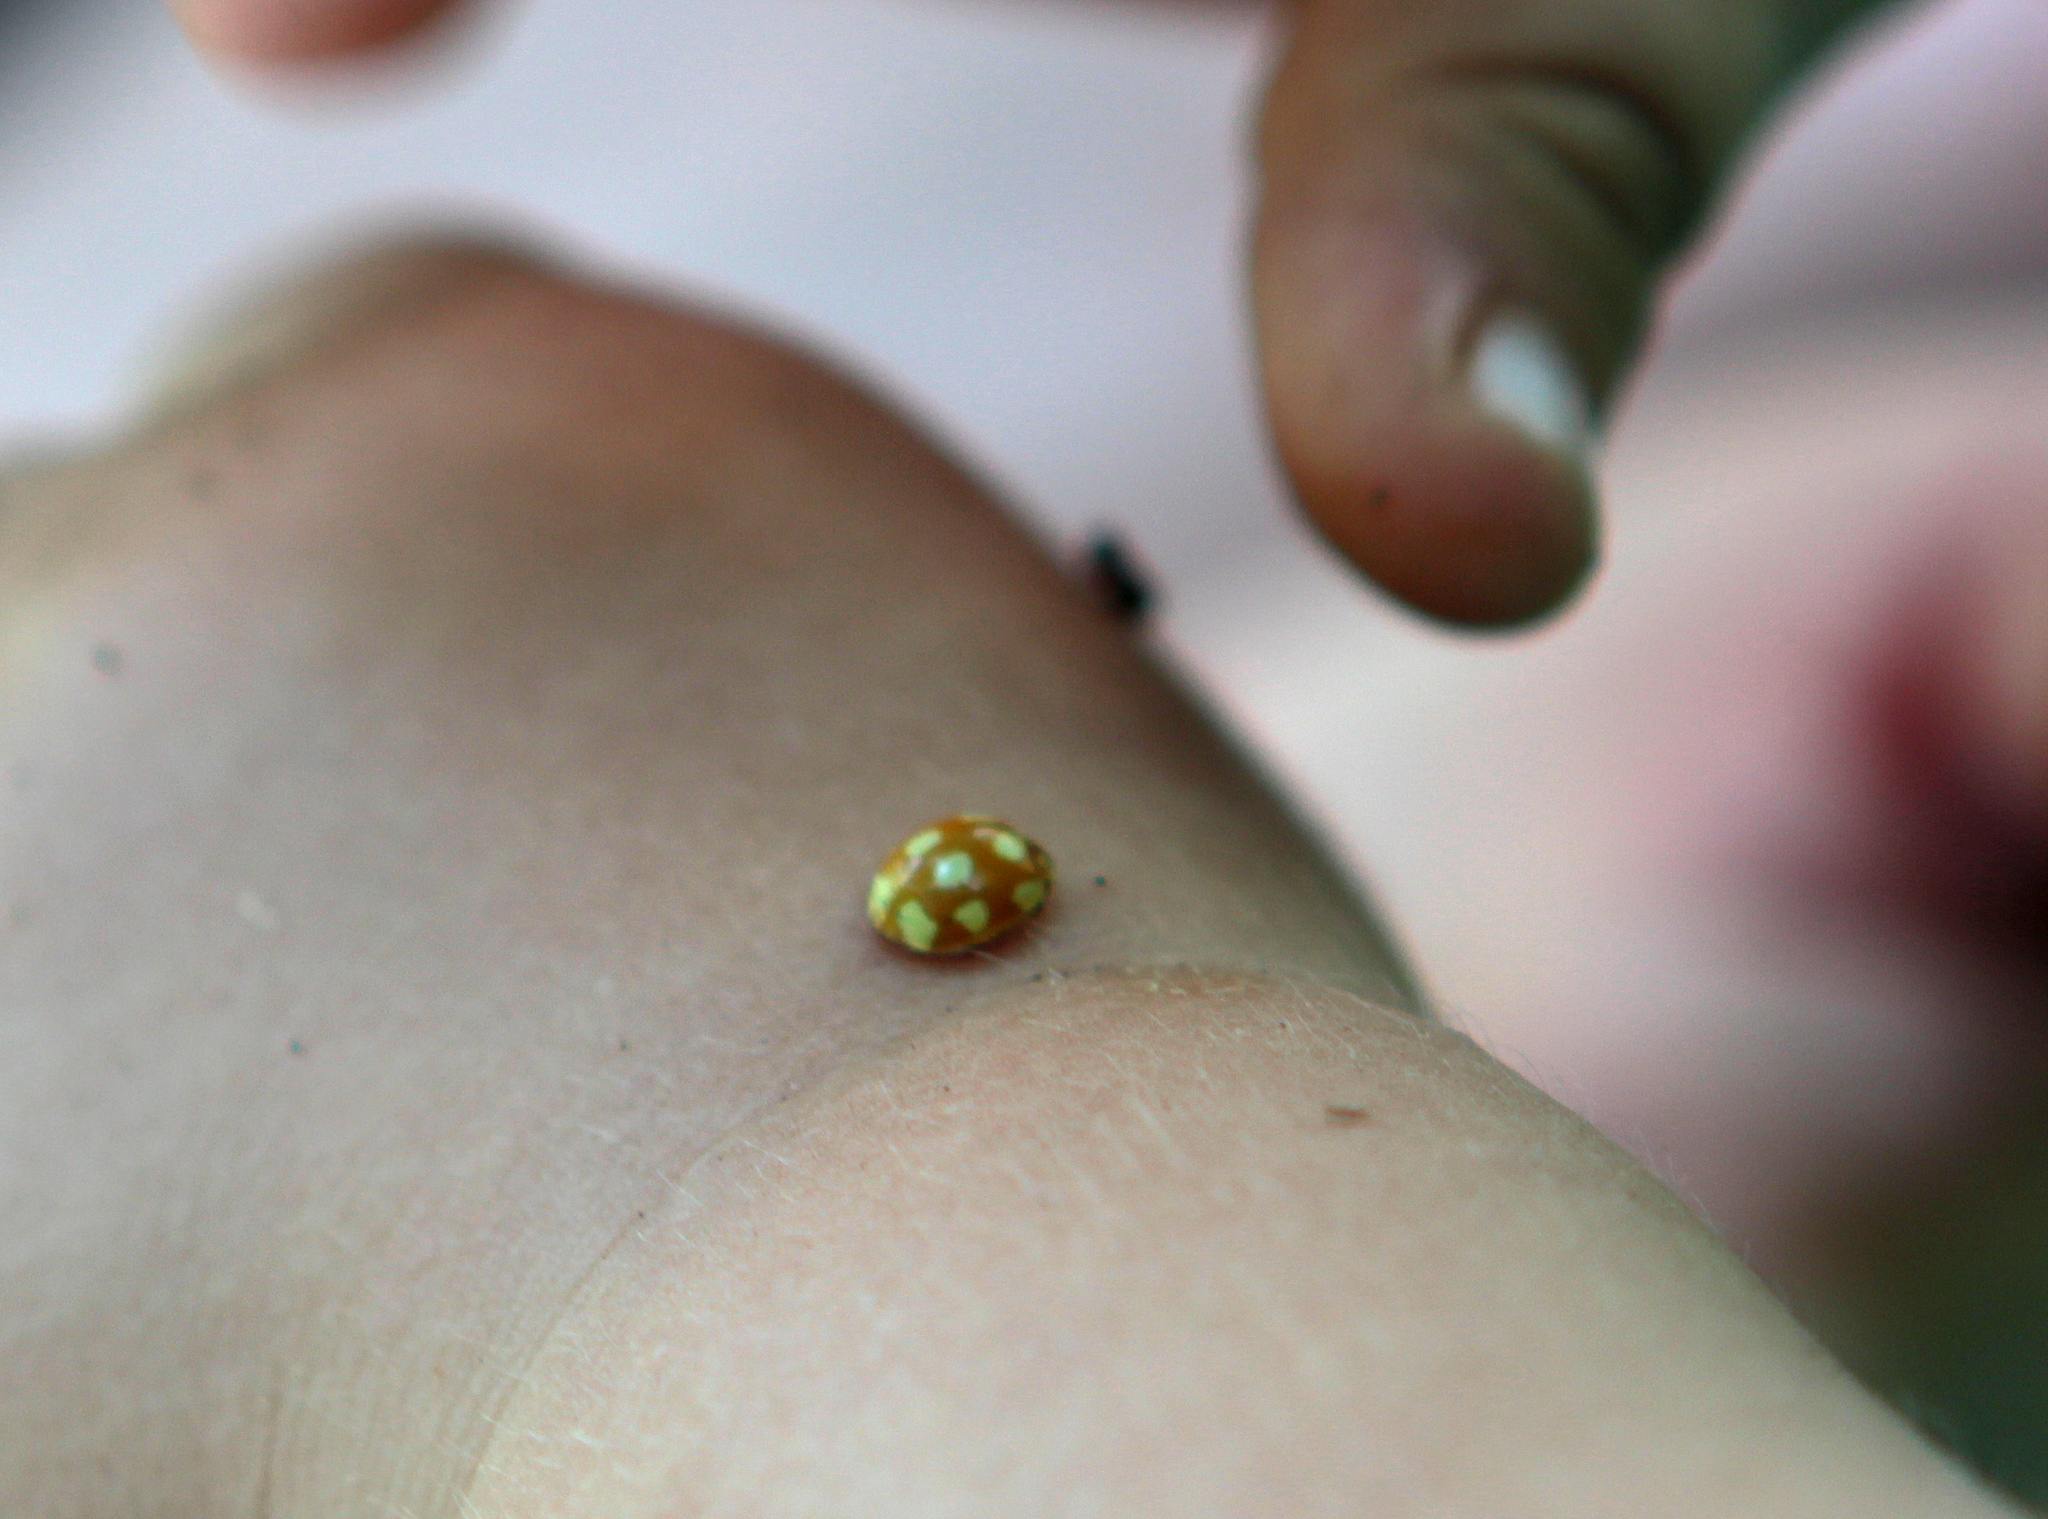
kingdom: Animalia
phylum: Arthropoda
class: Insecta
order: Coleoptera
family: Coccinellidae
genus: Calvia
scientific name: Calvia decemguttata
